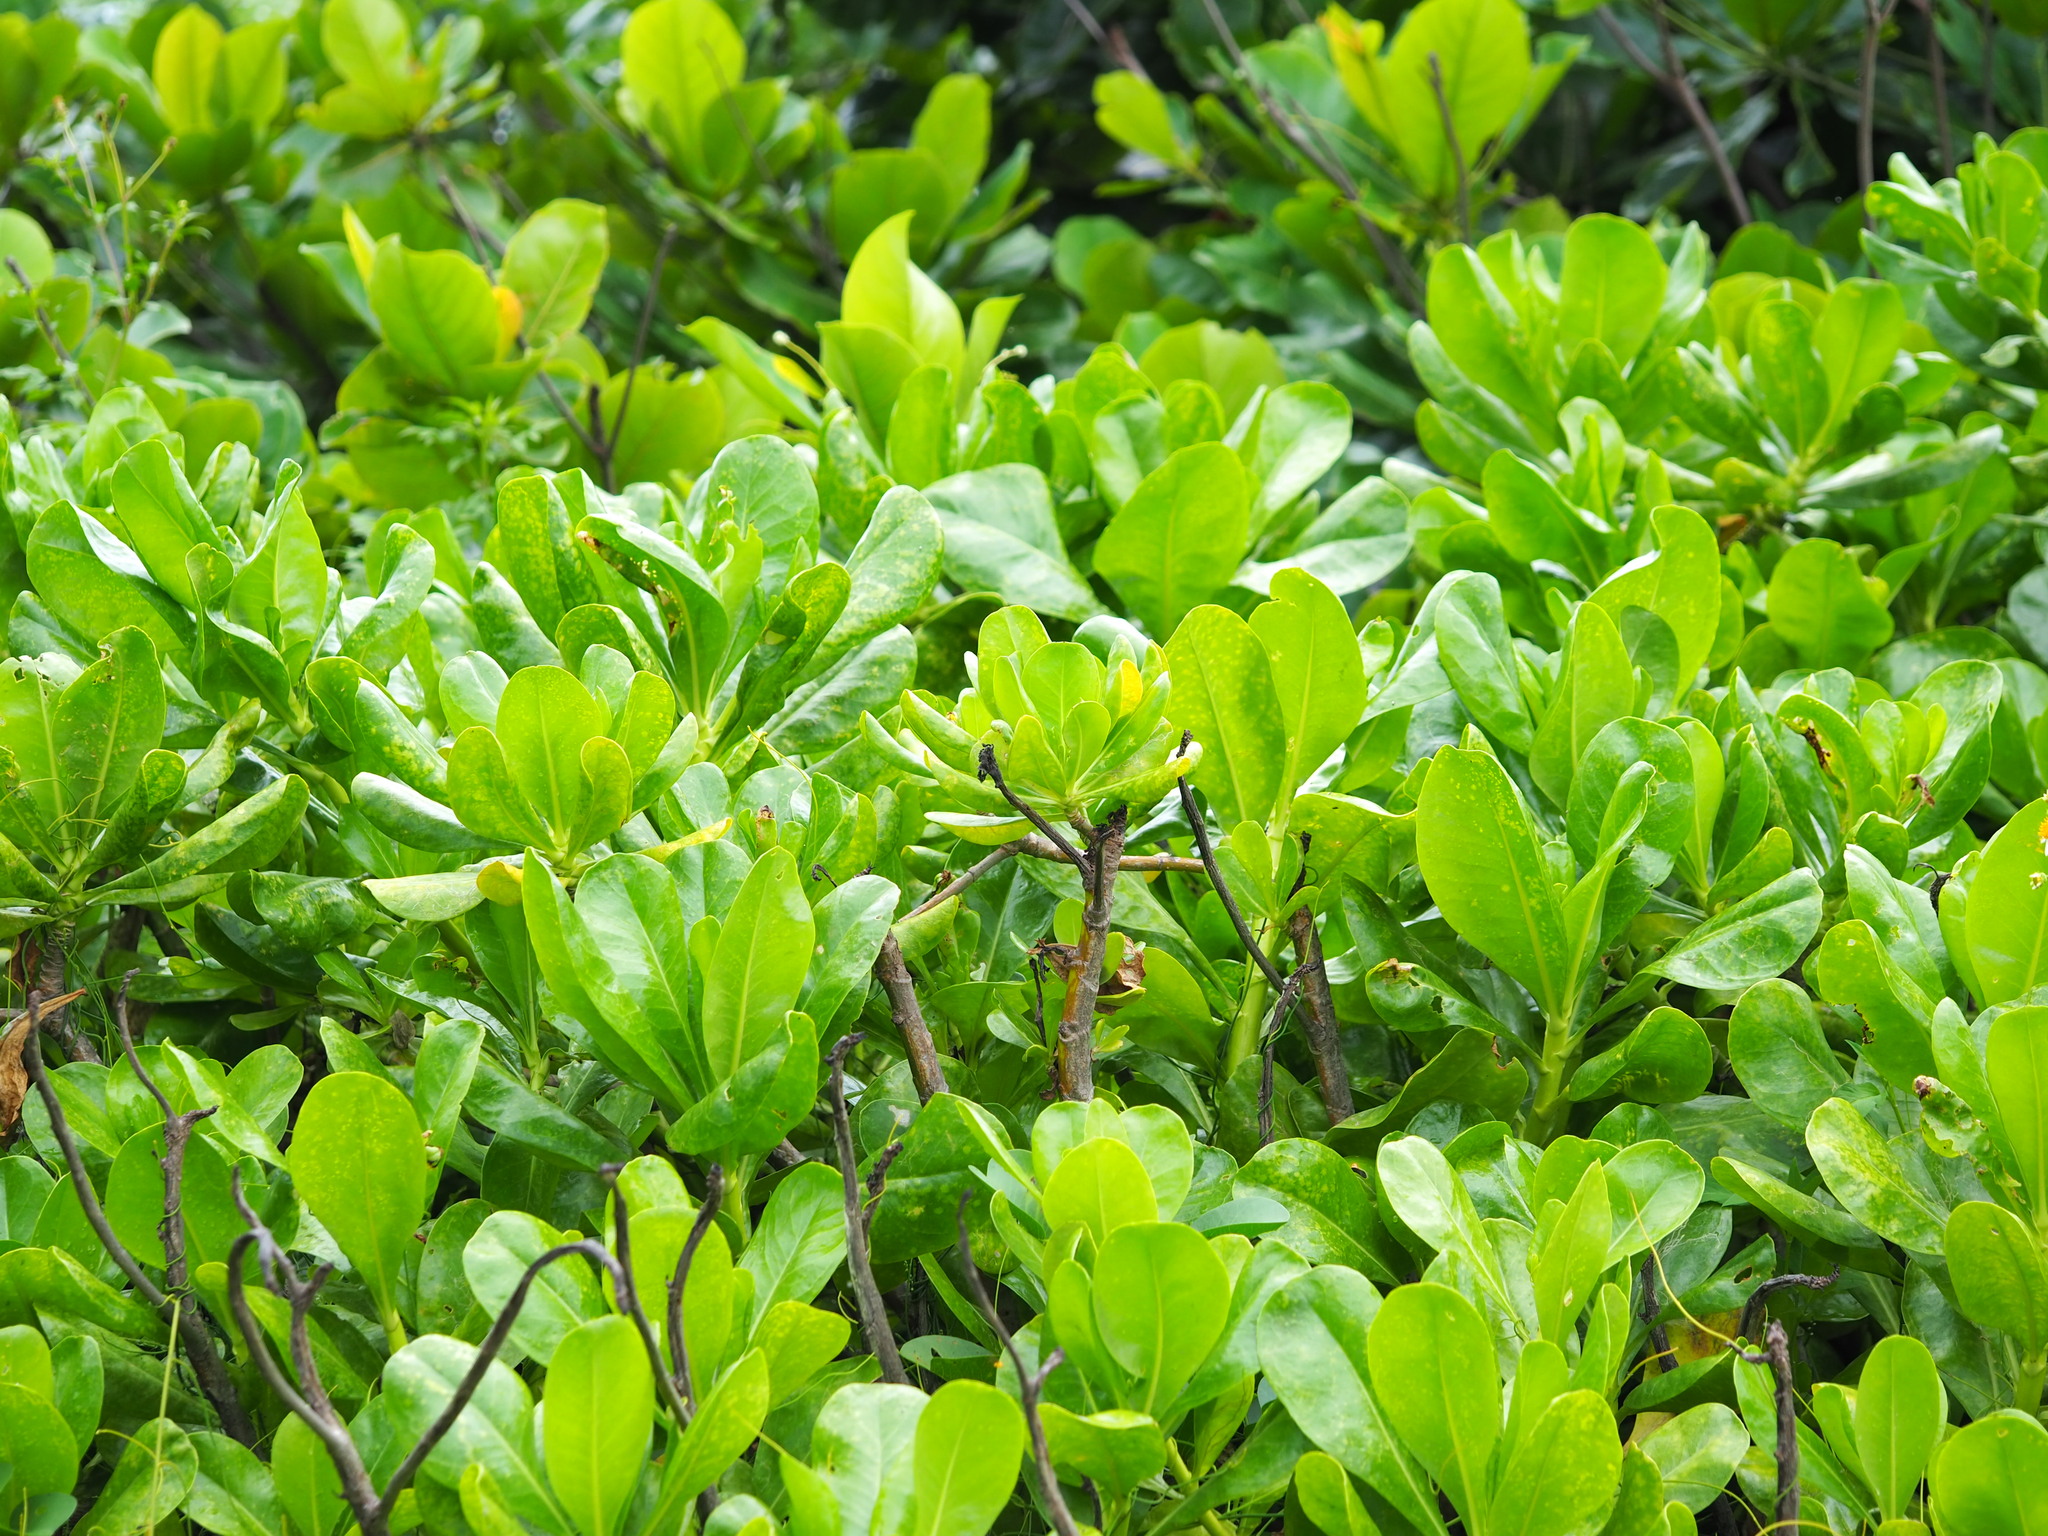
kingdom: Plantae
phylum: Tracheophyta
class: Magnoliopsida
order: Asterales
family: Goodeniaceae
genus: Scaevola
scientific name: Scaevola taccada
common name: Sea lettucetree
